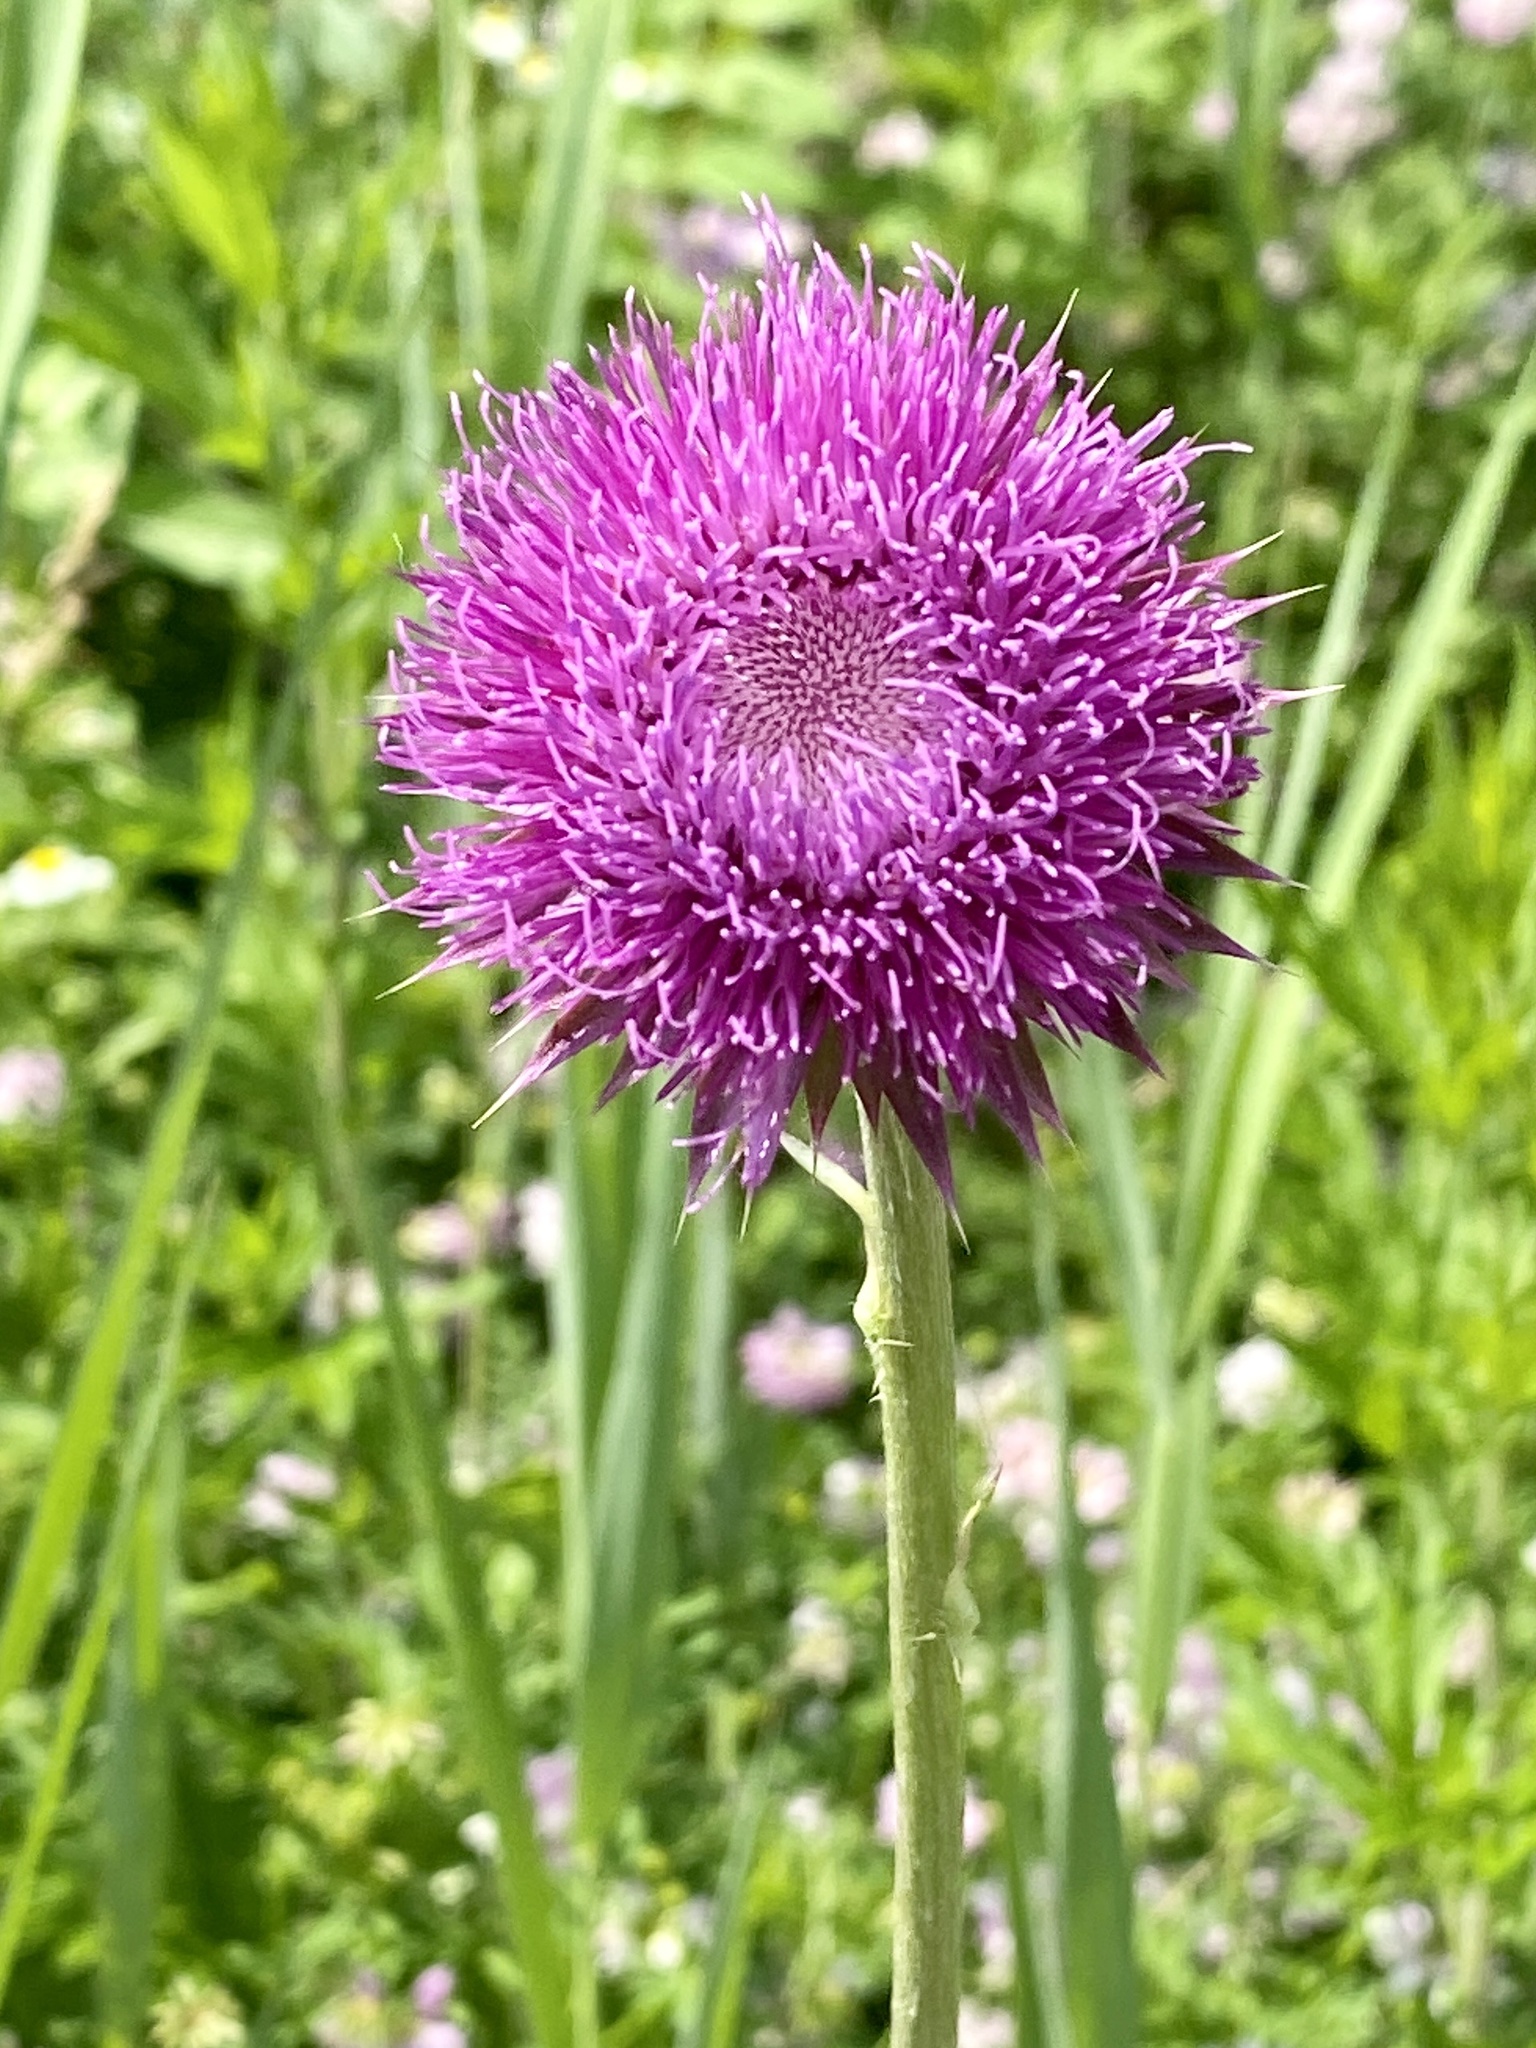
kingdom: Plantae
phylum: Tracheophyta
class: Magnoliopsida
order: Asterales
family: Asteraceae
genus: Carduus
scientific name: Carduus nutans
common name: Musk thistle
